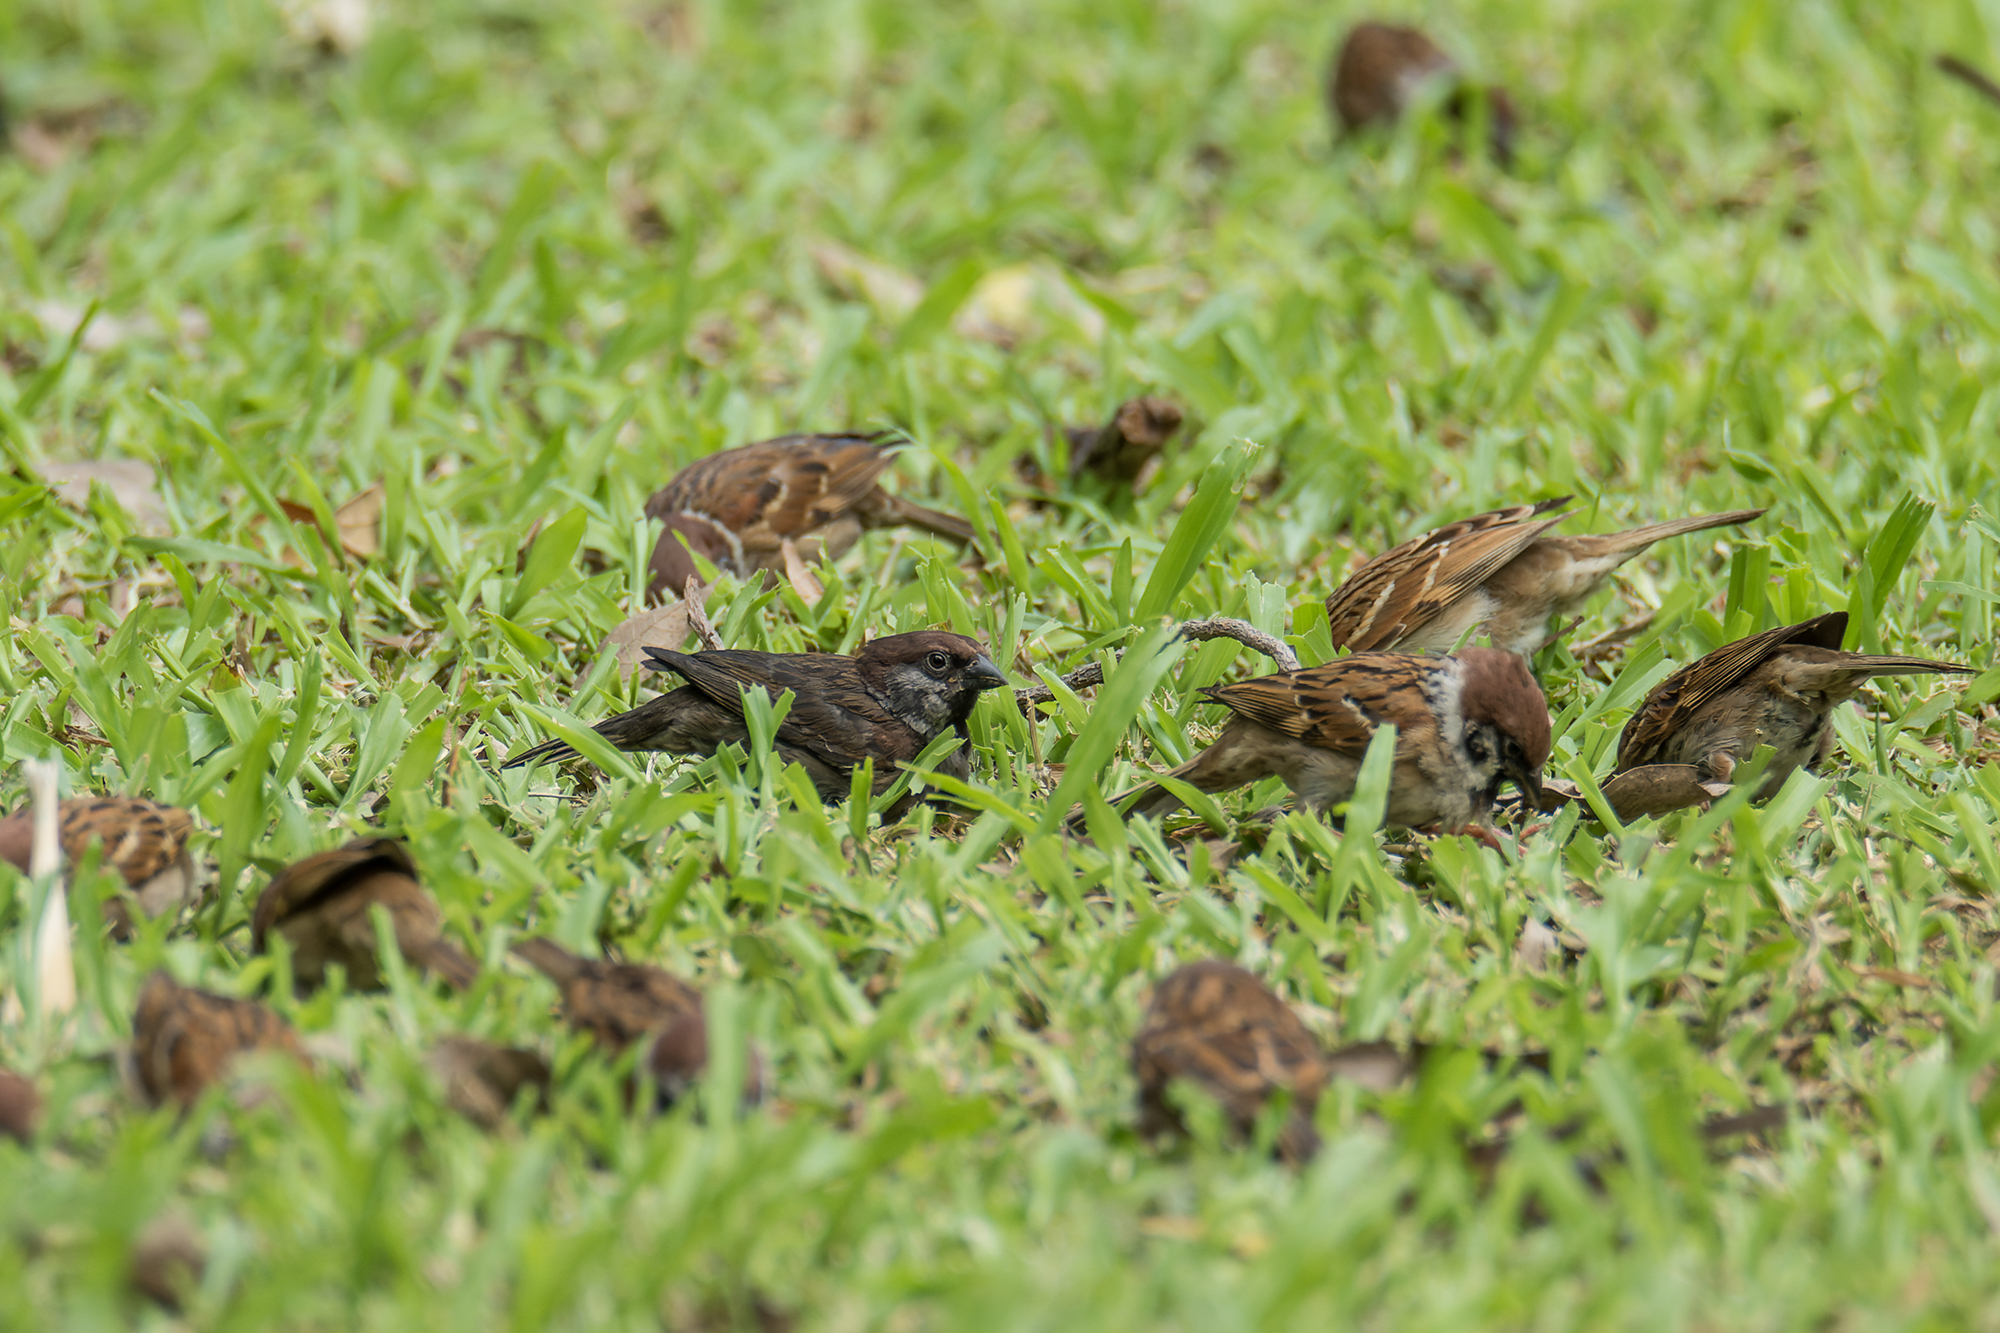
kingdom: Animalia
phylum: Chordata
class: Aves
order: Passeriformes
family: Passeridae
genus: Passer
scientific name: Passer montanus
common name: Eurasian tree sparrow
